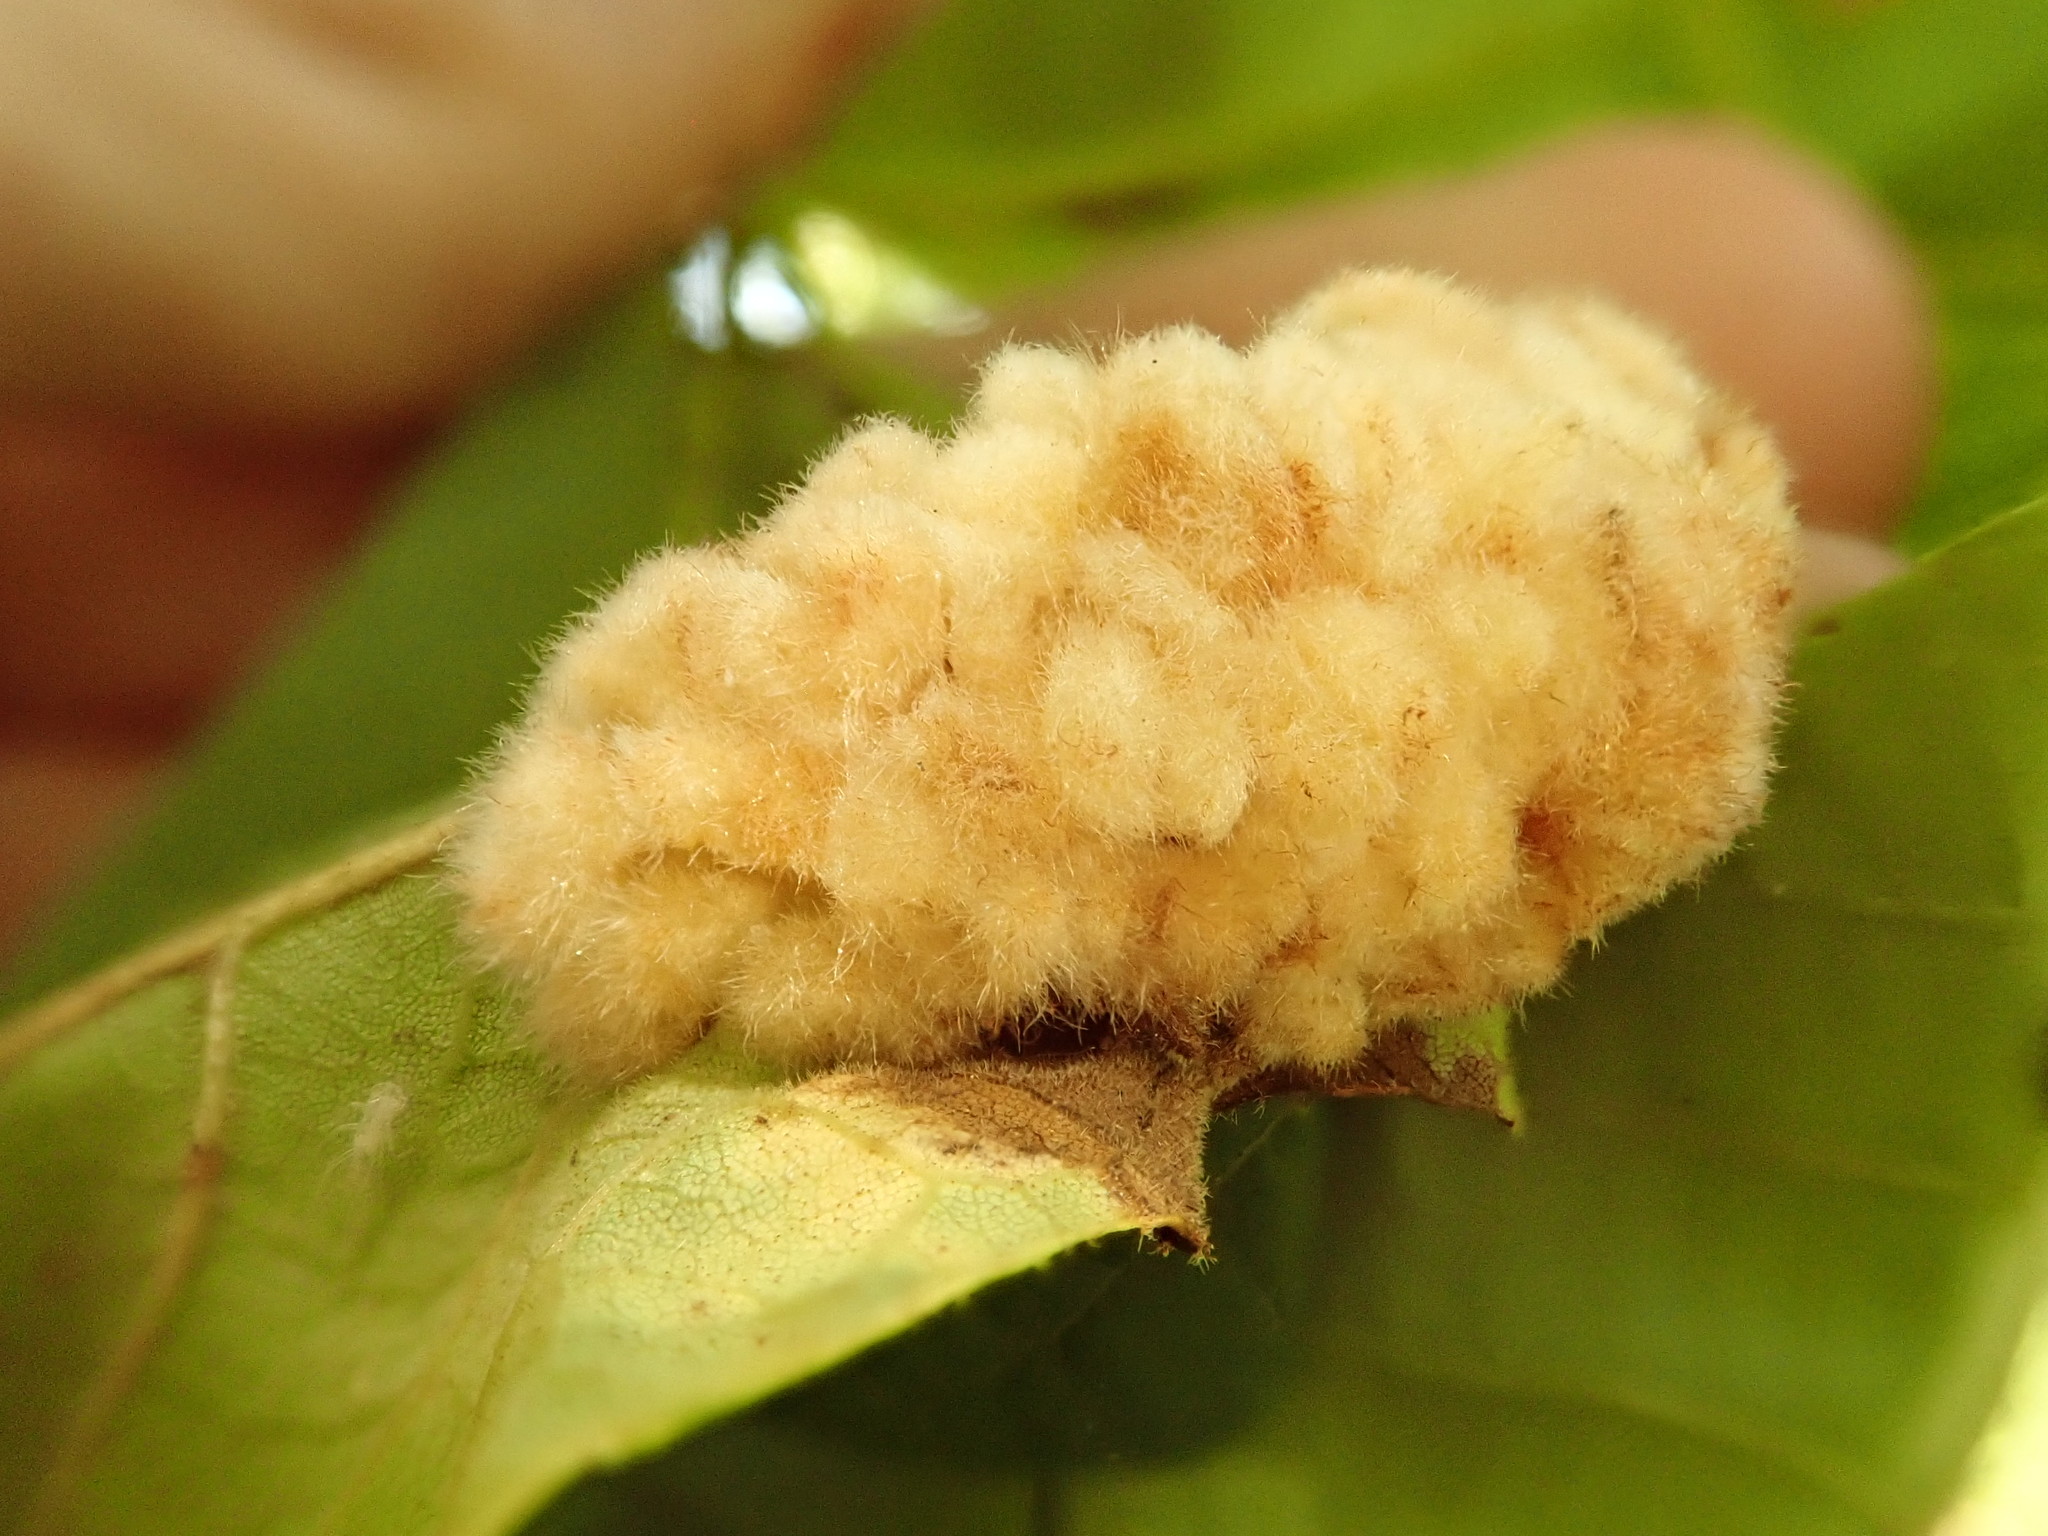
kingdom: Animalia
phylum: Arthropoda
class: Insecta
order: Diptera
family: Cecidomyiidae
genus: Caryomyia
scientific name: Caryomyia aggregata
